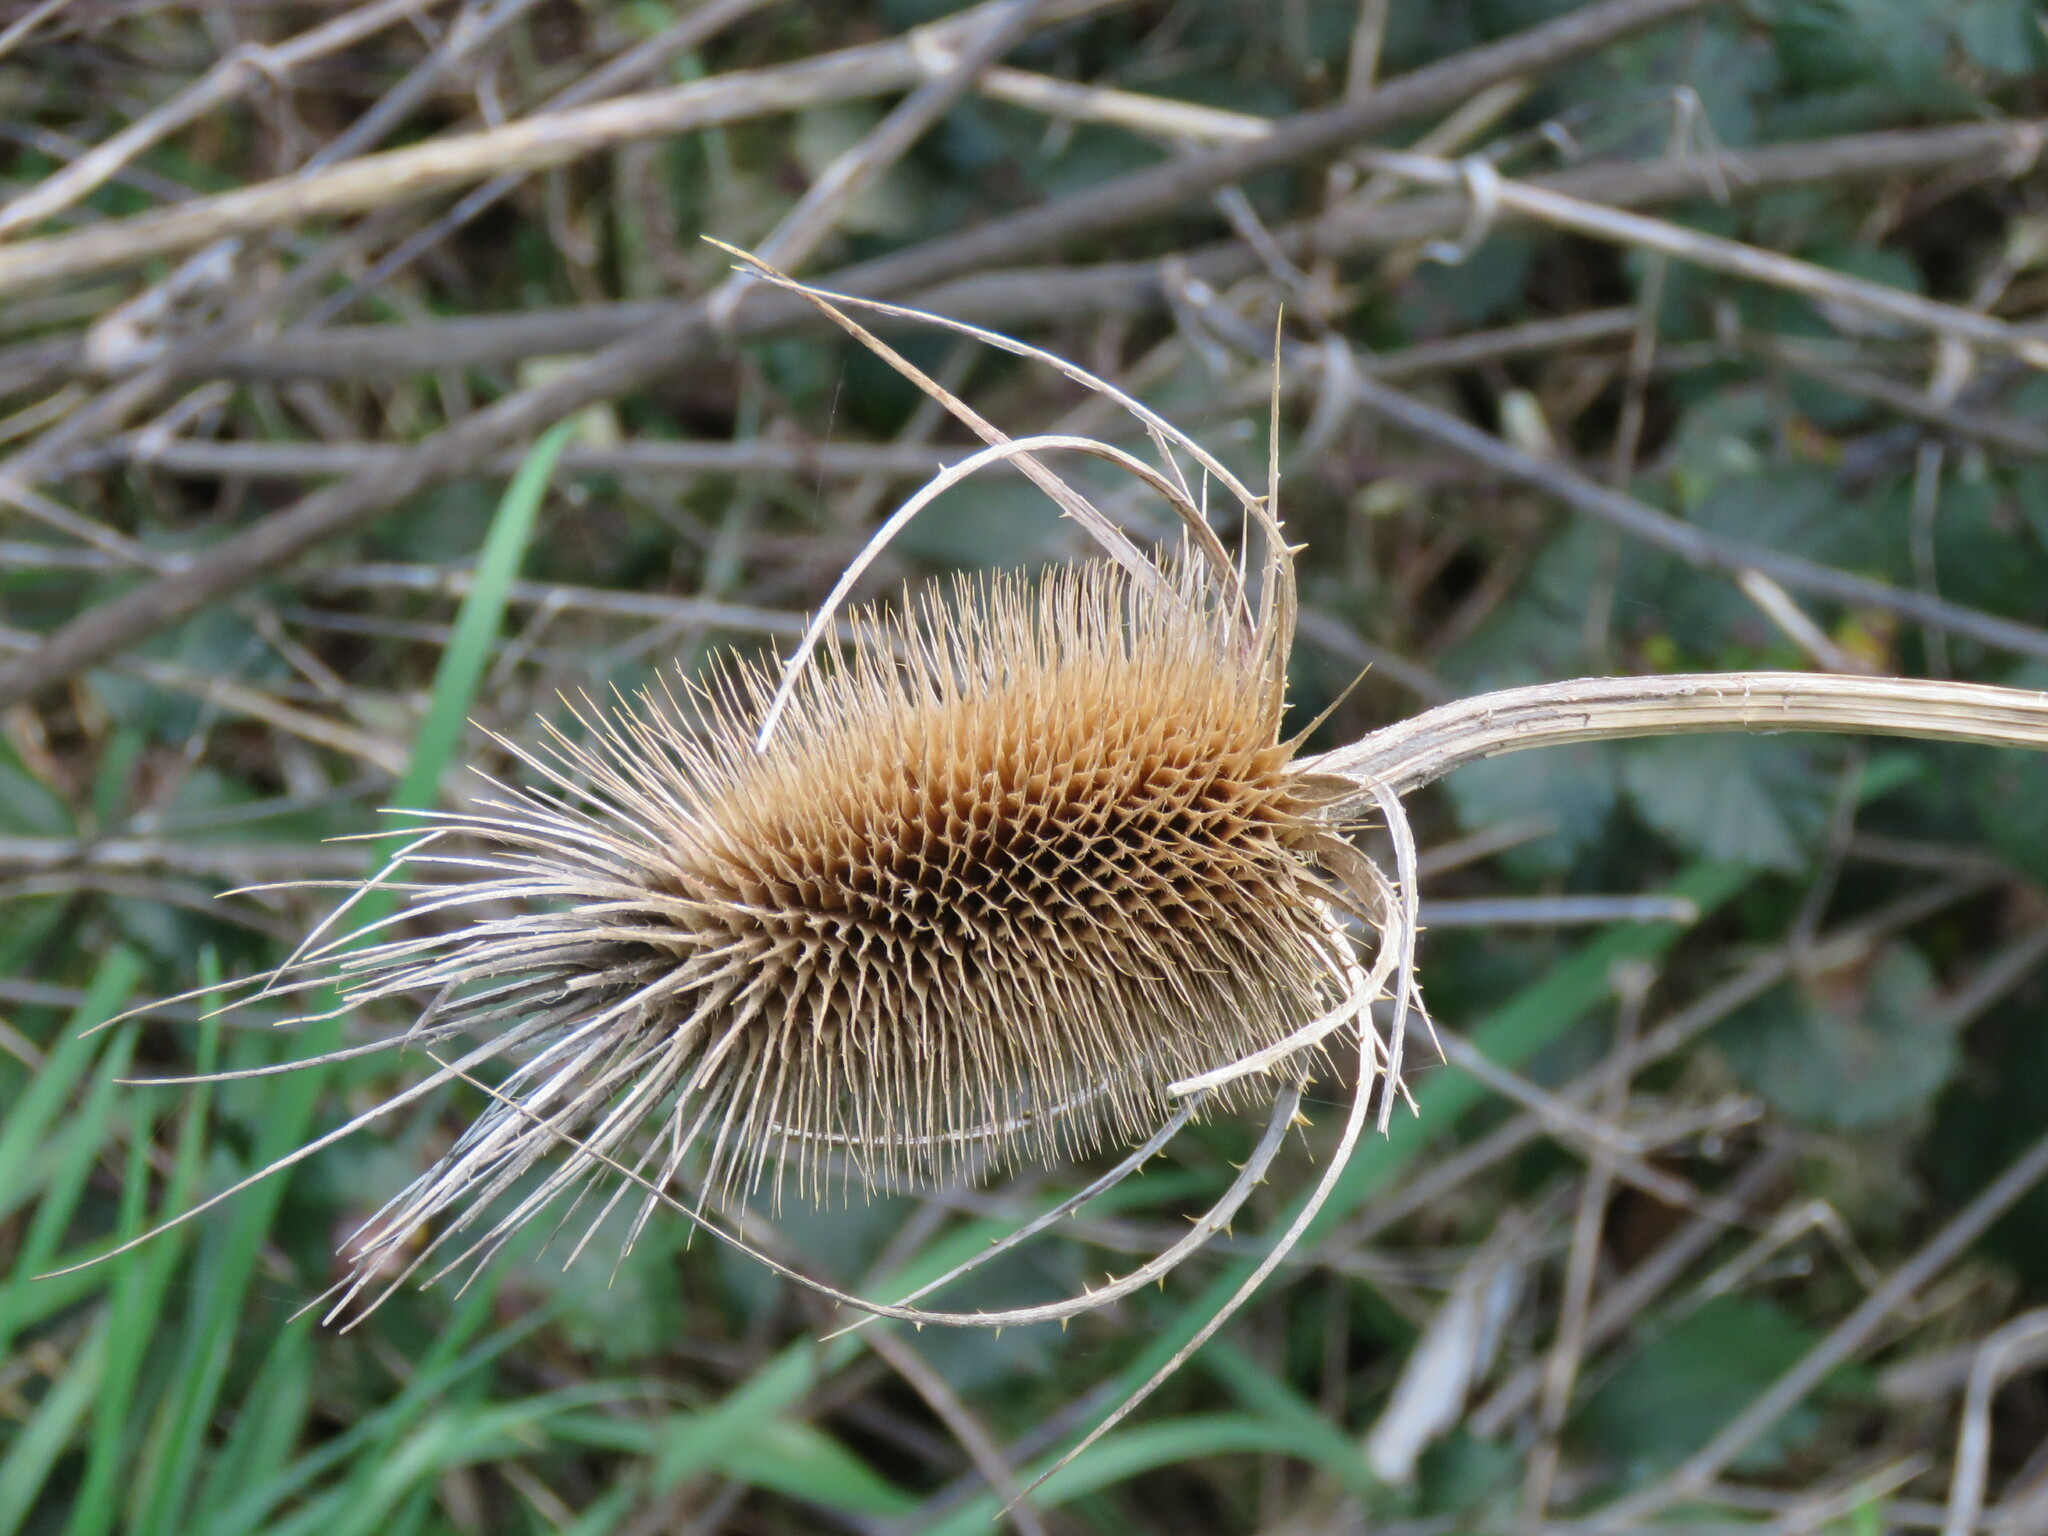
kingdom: Plantae
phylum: Tracheophyta
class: Magnoliopsida
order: Dipsacales
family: Caprifoliaceae
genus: Dipsacus
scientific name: Dipsacus fullonum
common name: Teasel
